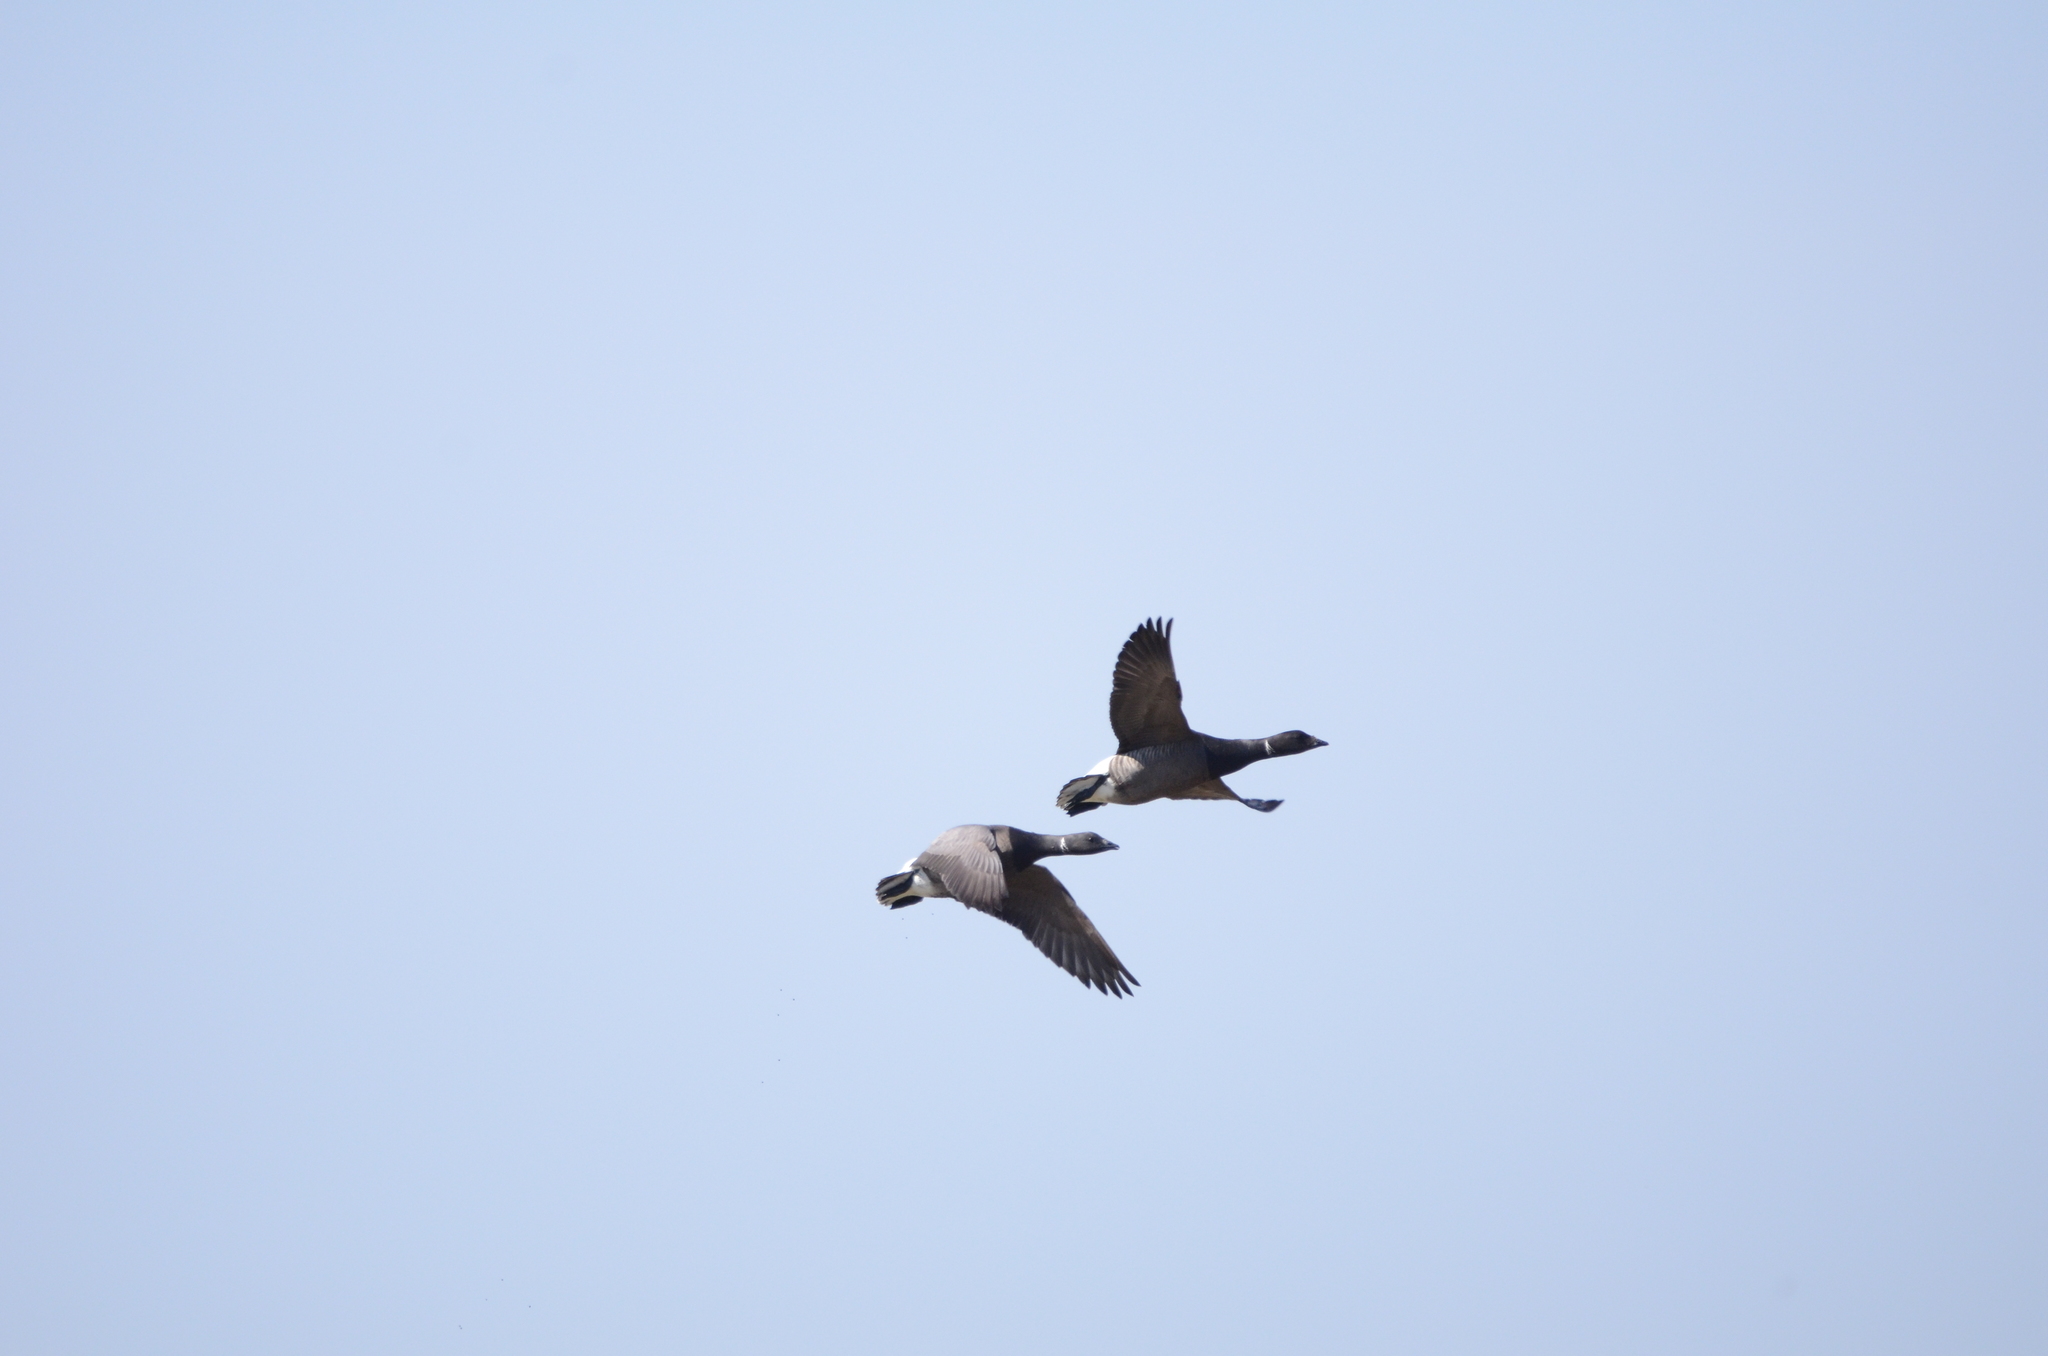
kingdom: Animalia
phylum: Chordata
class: Aves
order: Anseriformes
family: Anatidae
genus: Branta
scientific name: Branta bernicla
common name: Brant goose
